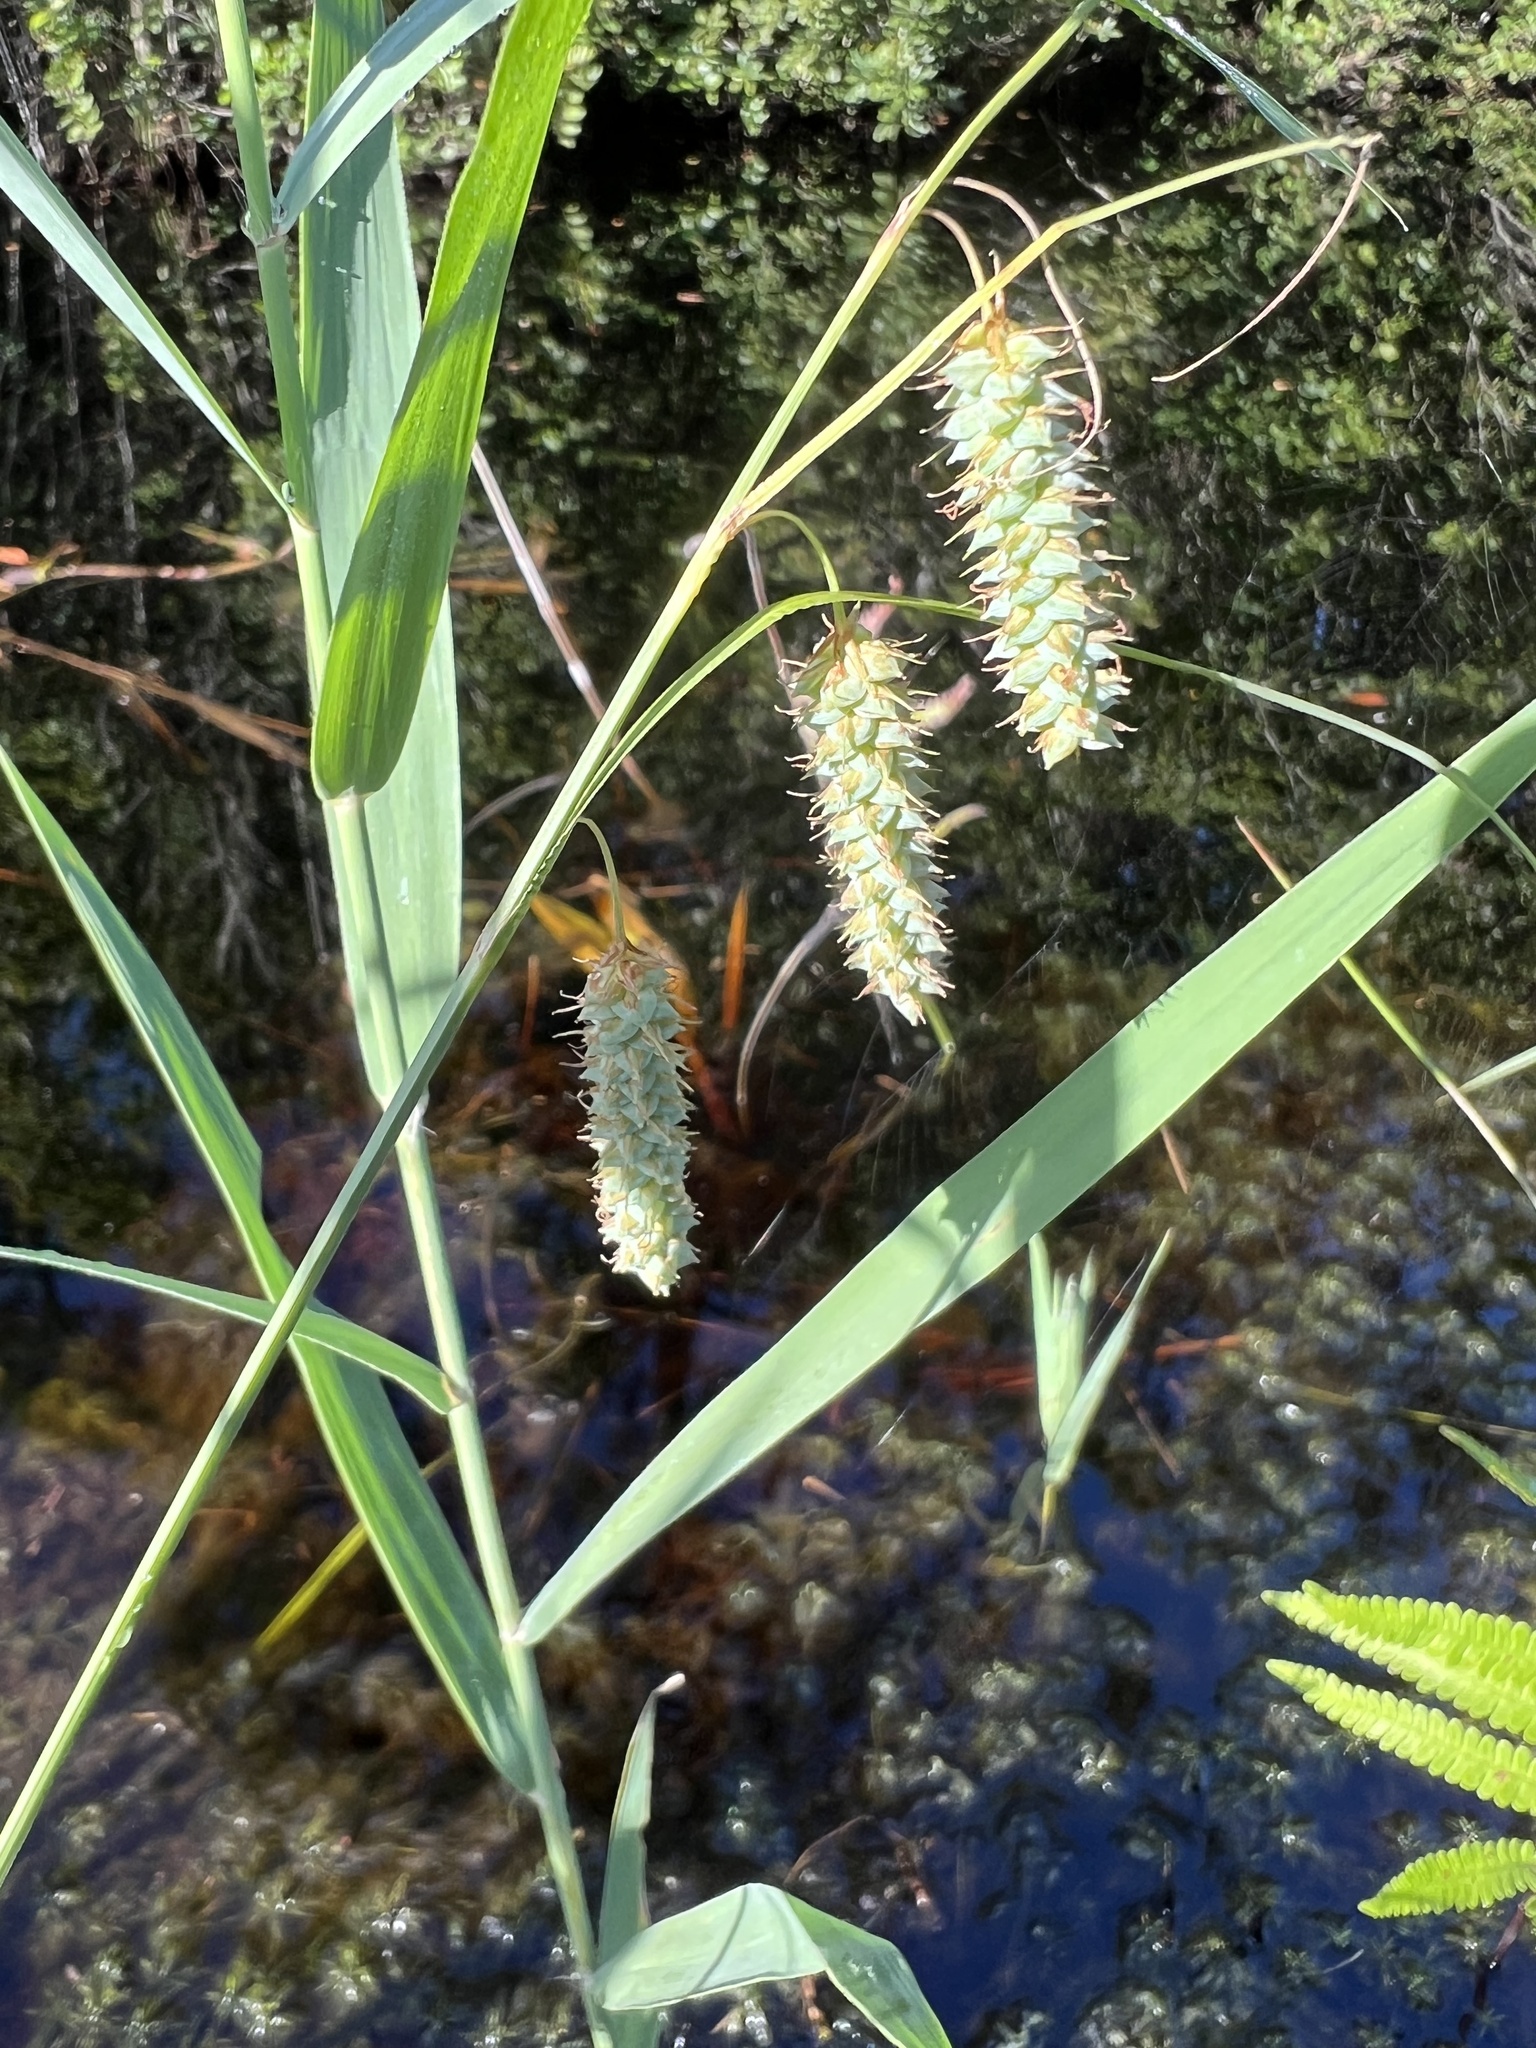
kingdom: Plantae
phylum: Tracheophyta
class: Liliopsida
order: Poales
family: Cyperaceae
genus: Carex
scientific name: Carex glaucescens
